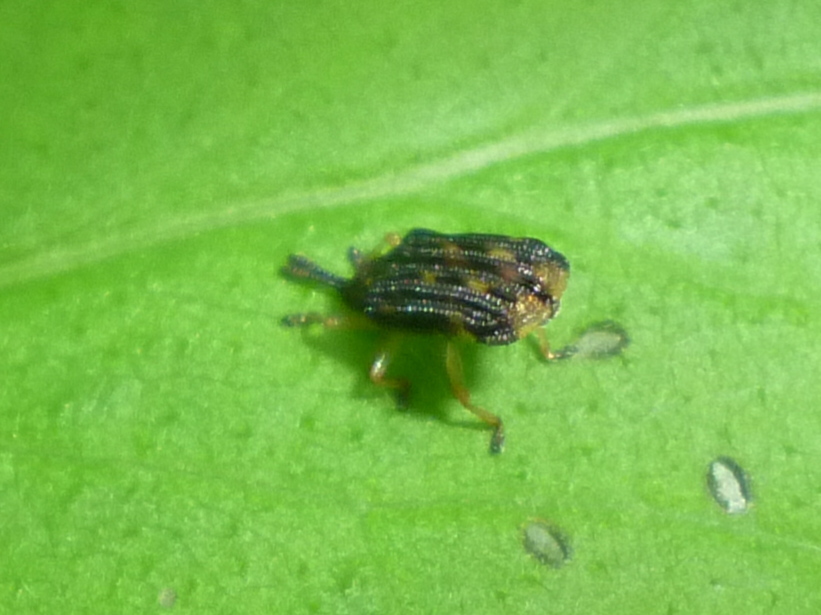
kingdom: Animalia
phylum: Arthropoda
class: Insecta
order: Coleoptera
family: Chrysomelidae
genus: Sumitrosis
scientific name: Sumitrosis inaequalis
